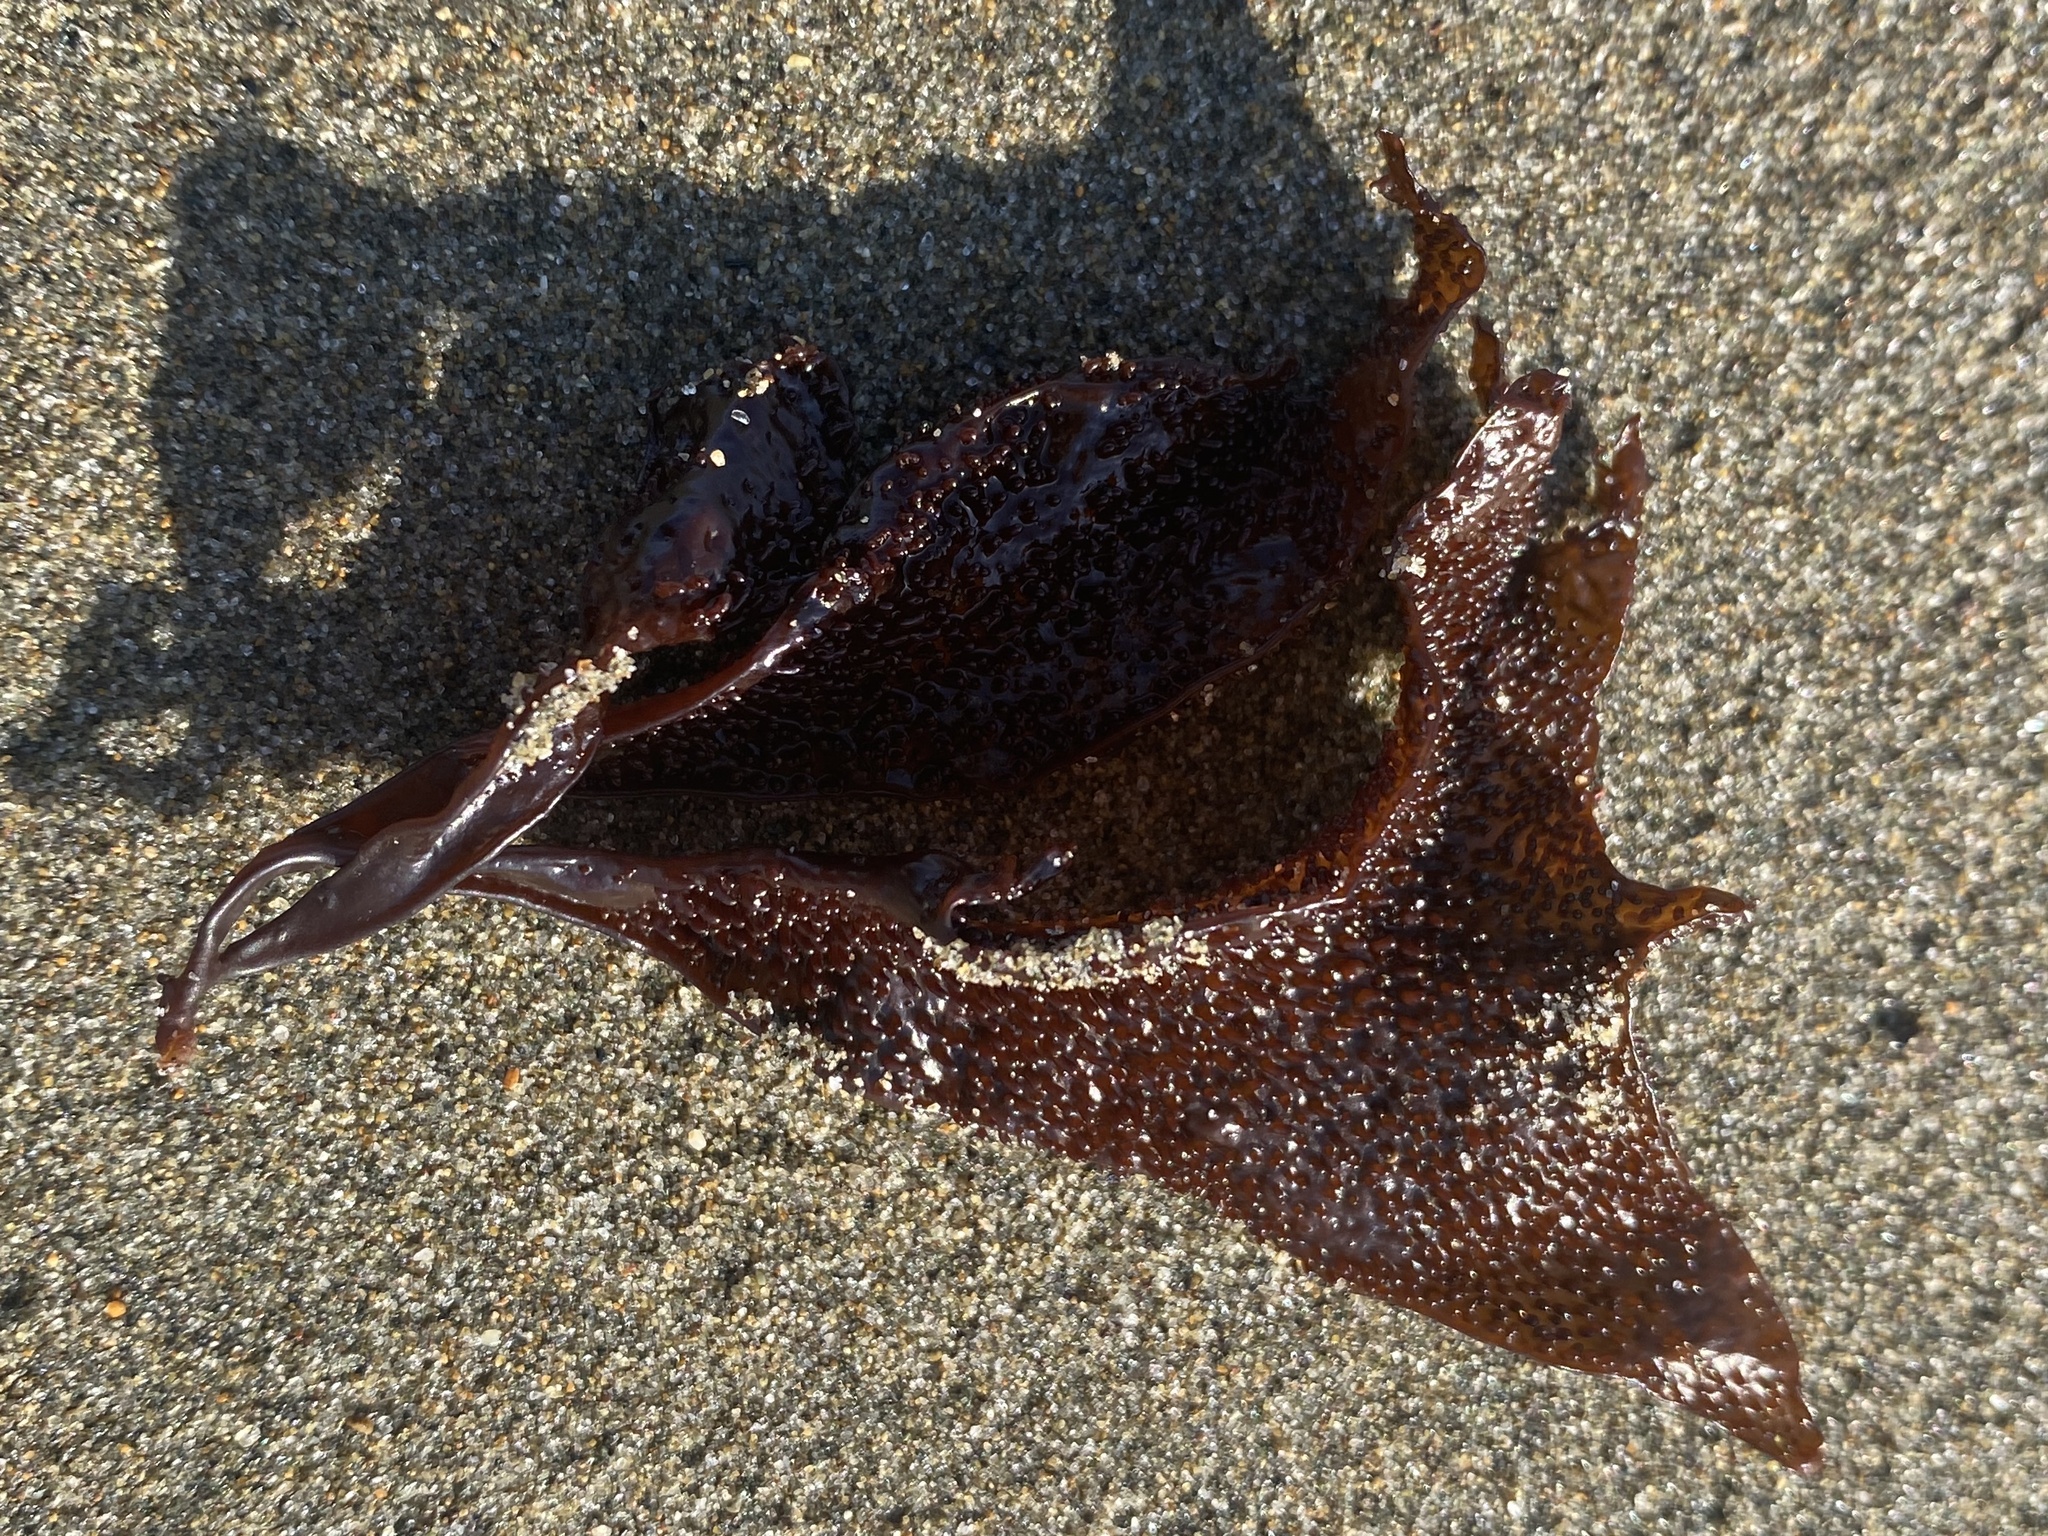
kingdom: Plantae
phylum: Rhodophyta
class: Florideophyceae
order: Gigartinales
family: Phyllophoraceae
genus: Mastocarpus
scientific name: Mastocarpus papillatus
